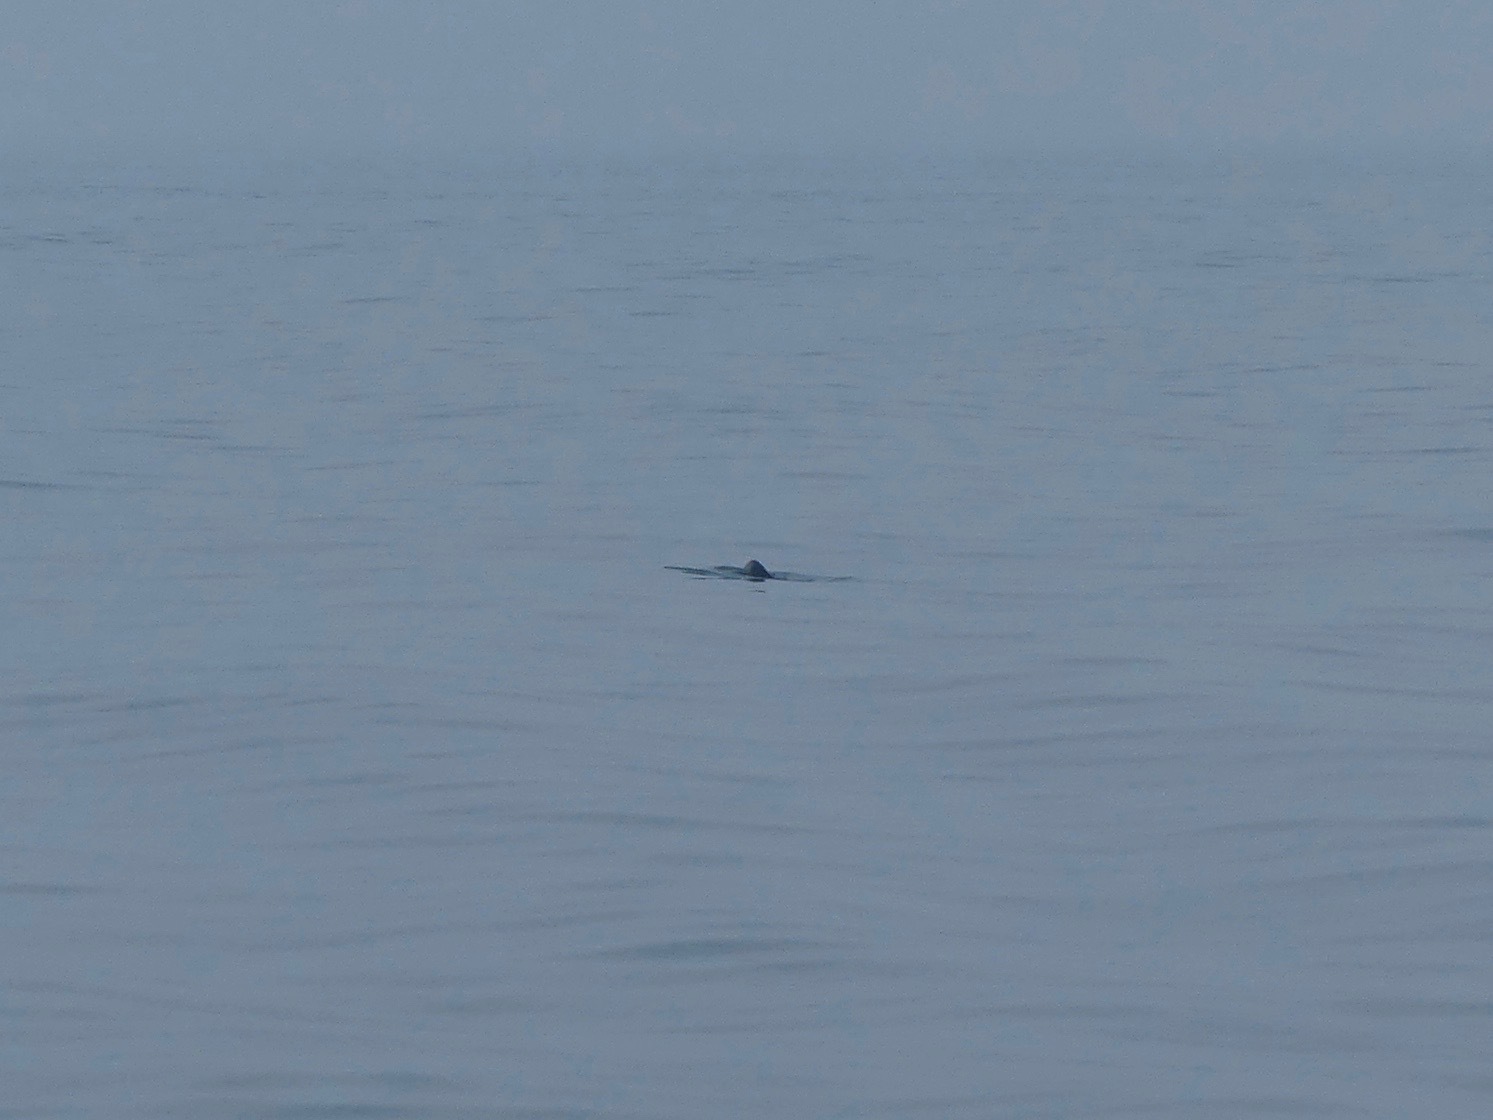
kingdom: Animalia
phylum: Chordata
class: Mammalia
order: Cetacea
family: Phocoenidae
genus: Phocoenoides
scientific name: Phocoenoides dalli
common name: Dall's porpoise
